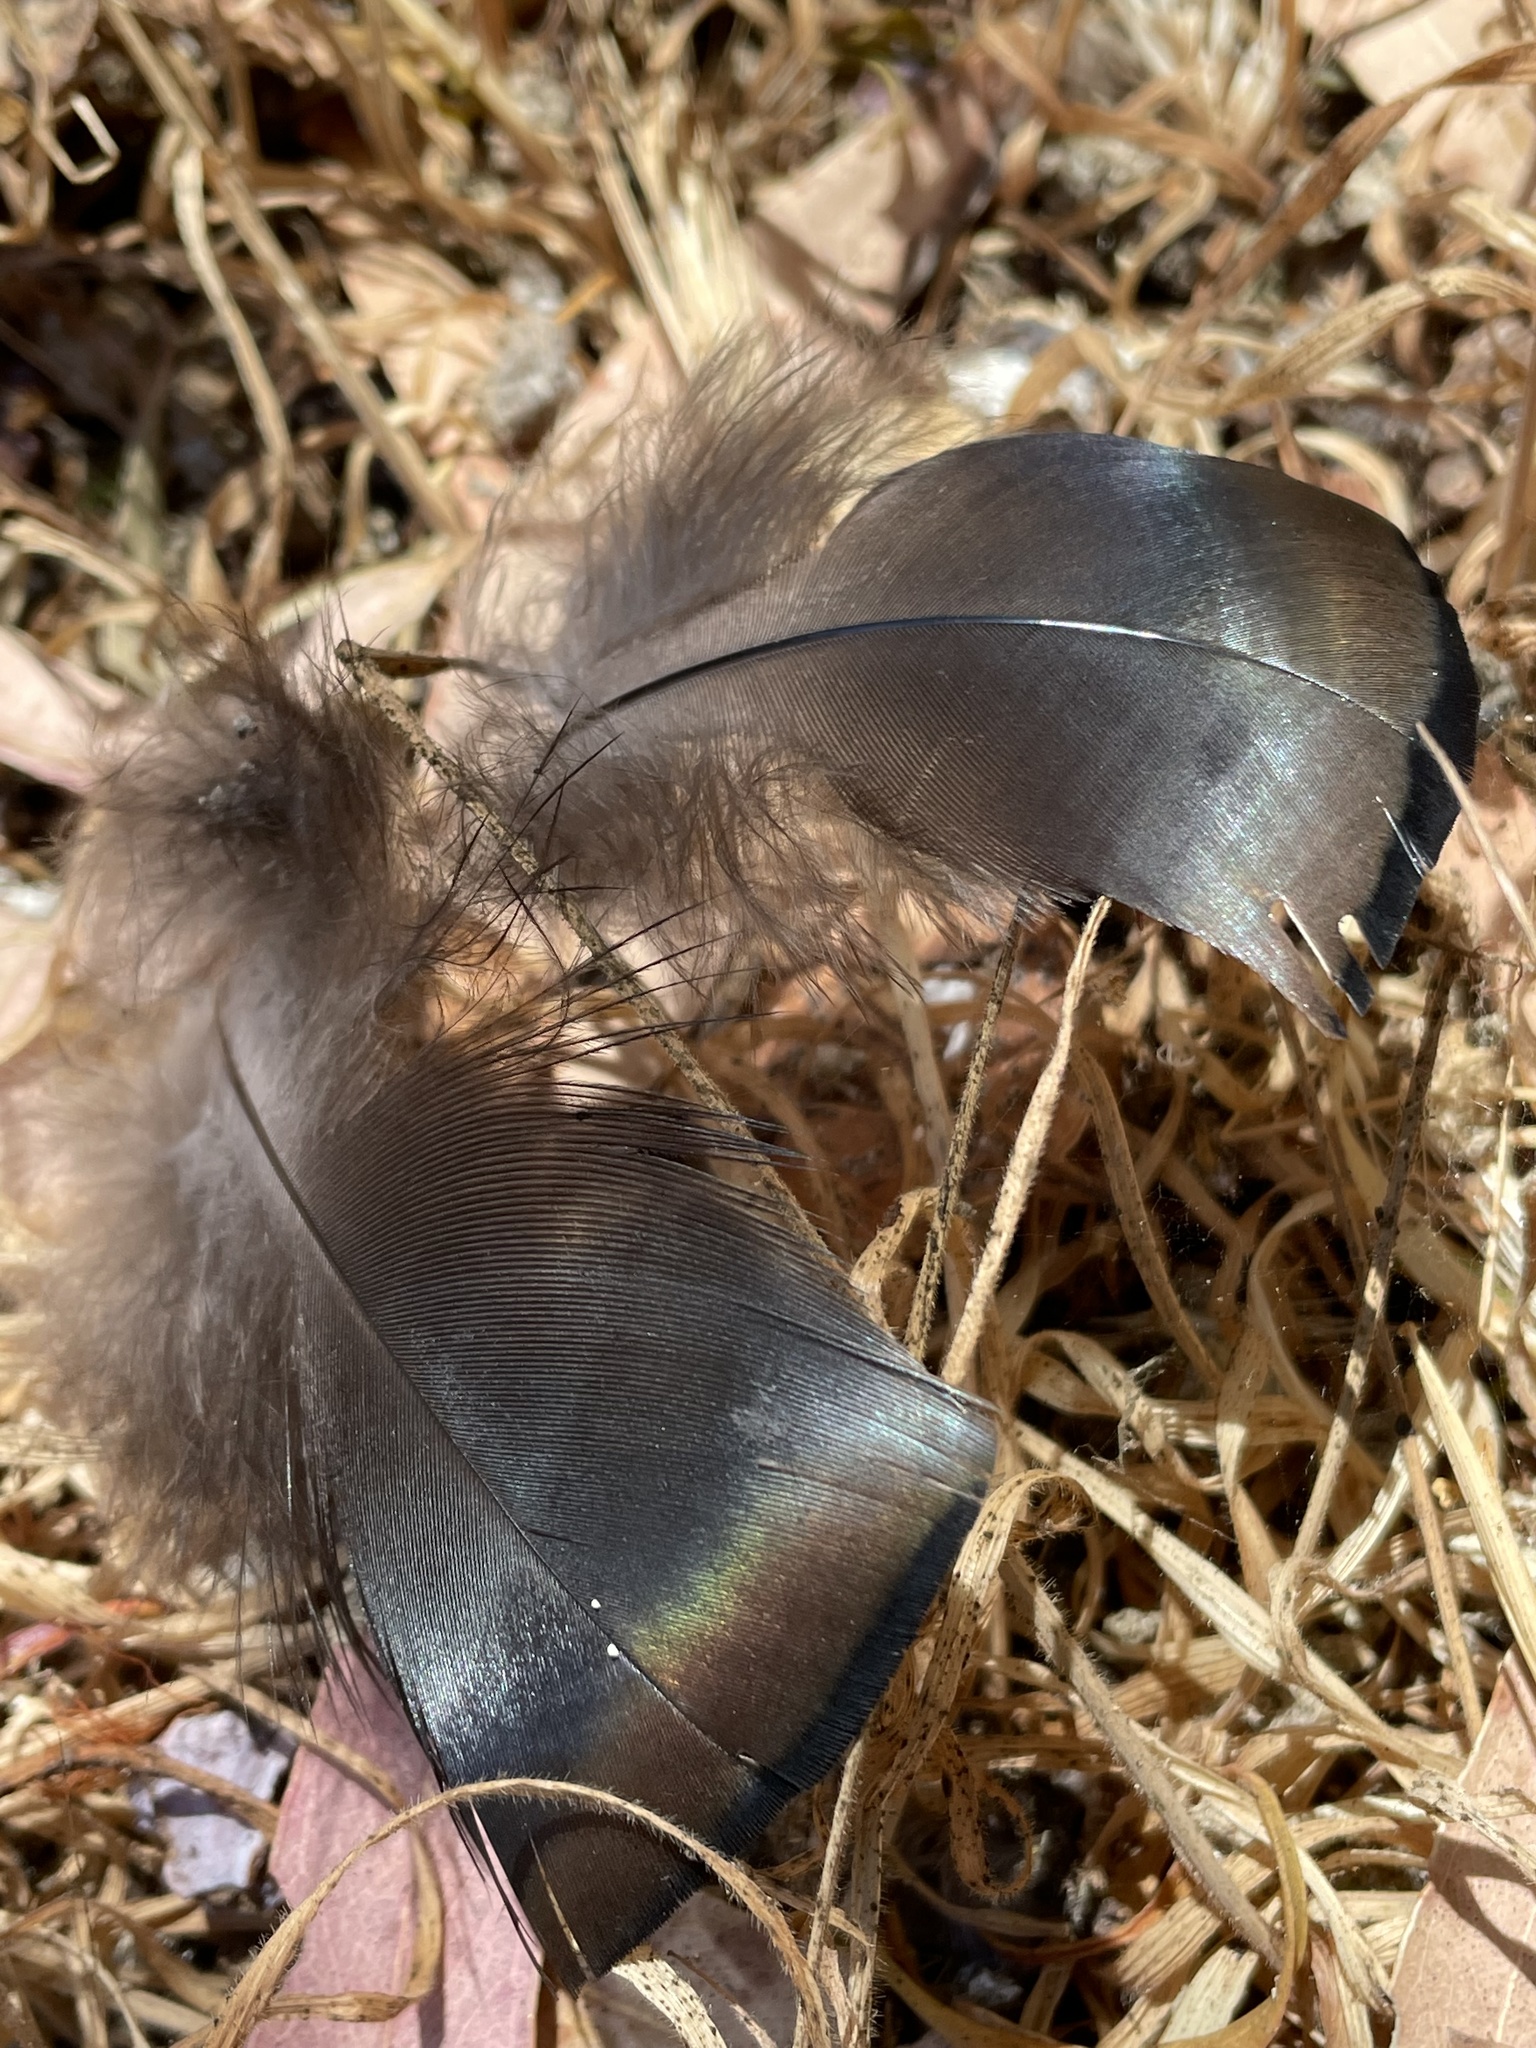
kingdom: Animalia
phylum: Chordata
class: Aves
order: Galliformes
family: Phasianidae
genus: Meleagris
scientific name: Meleagris gallopavo
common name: Wild turkey
